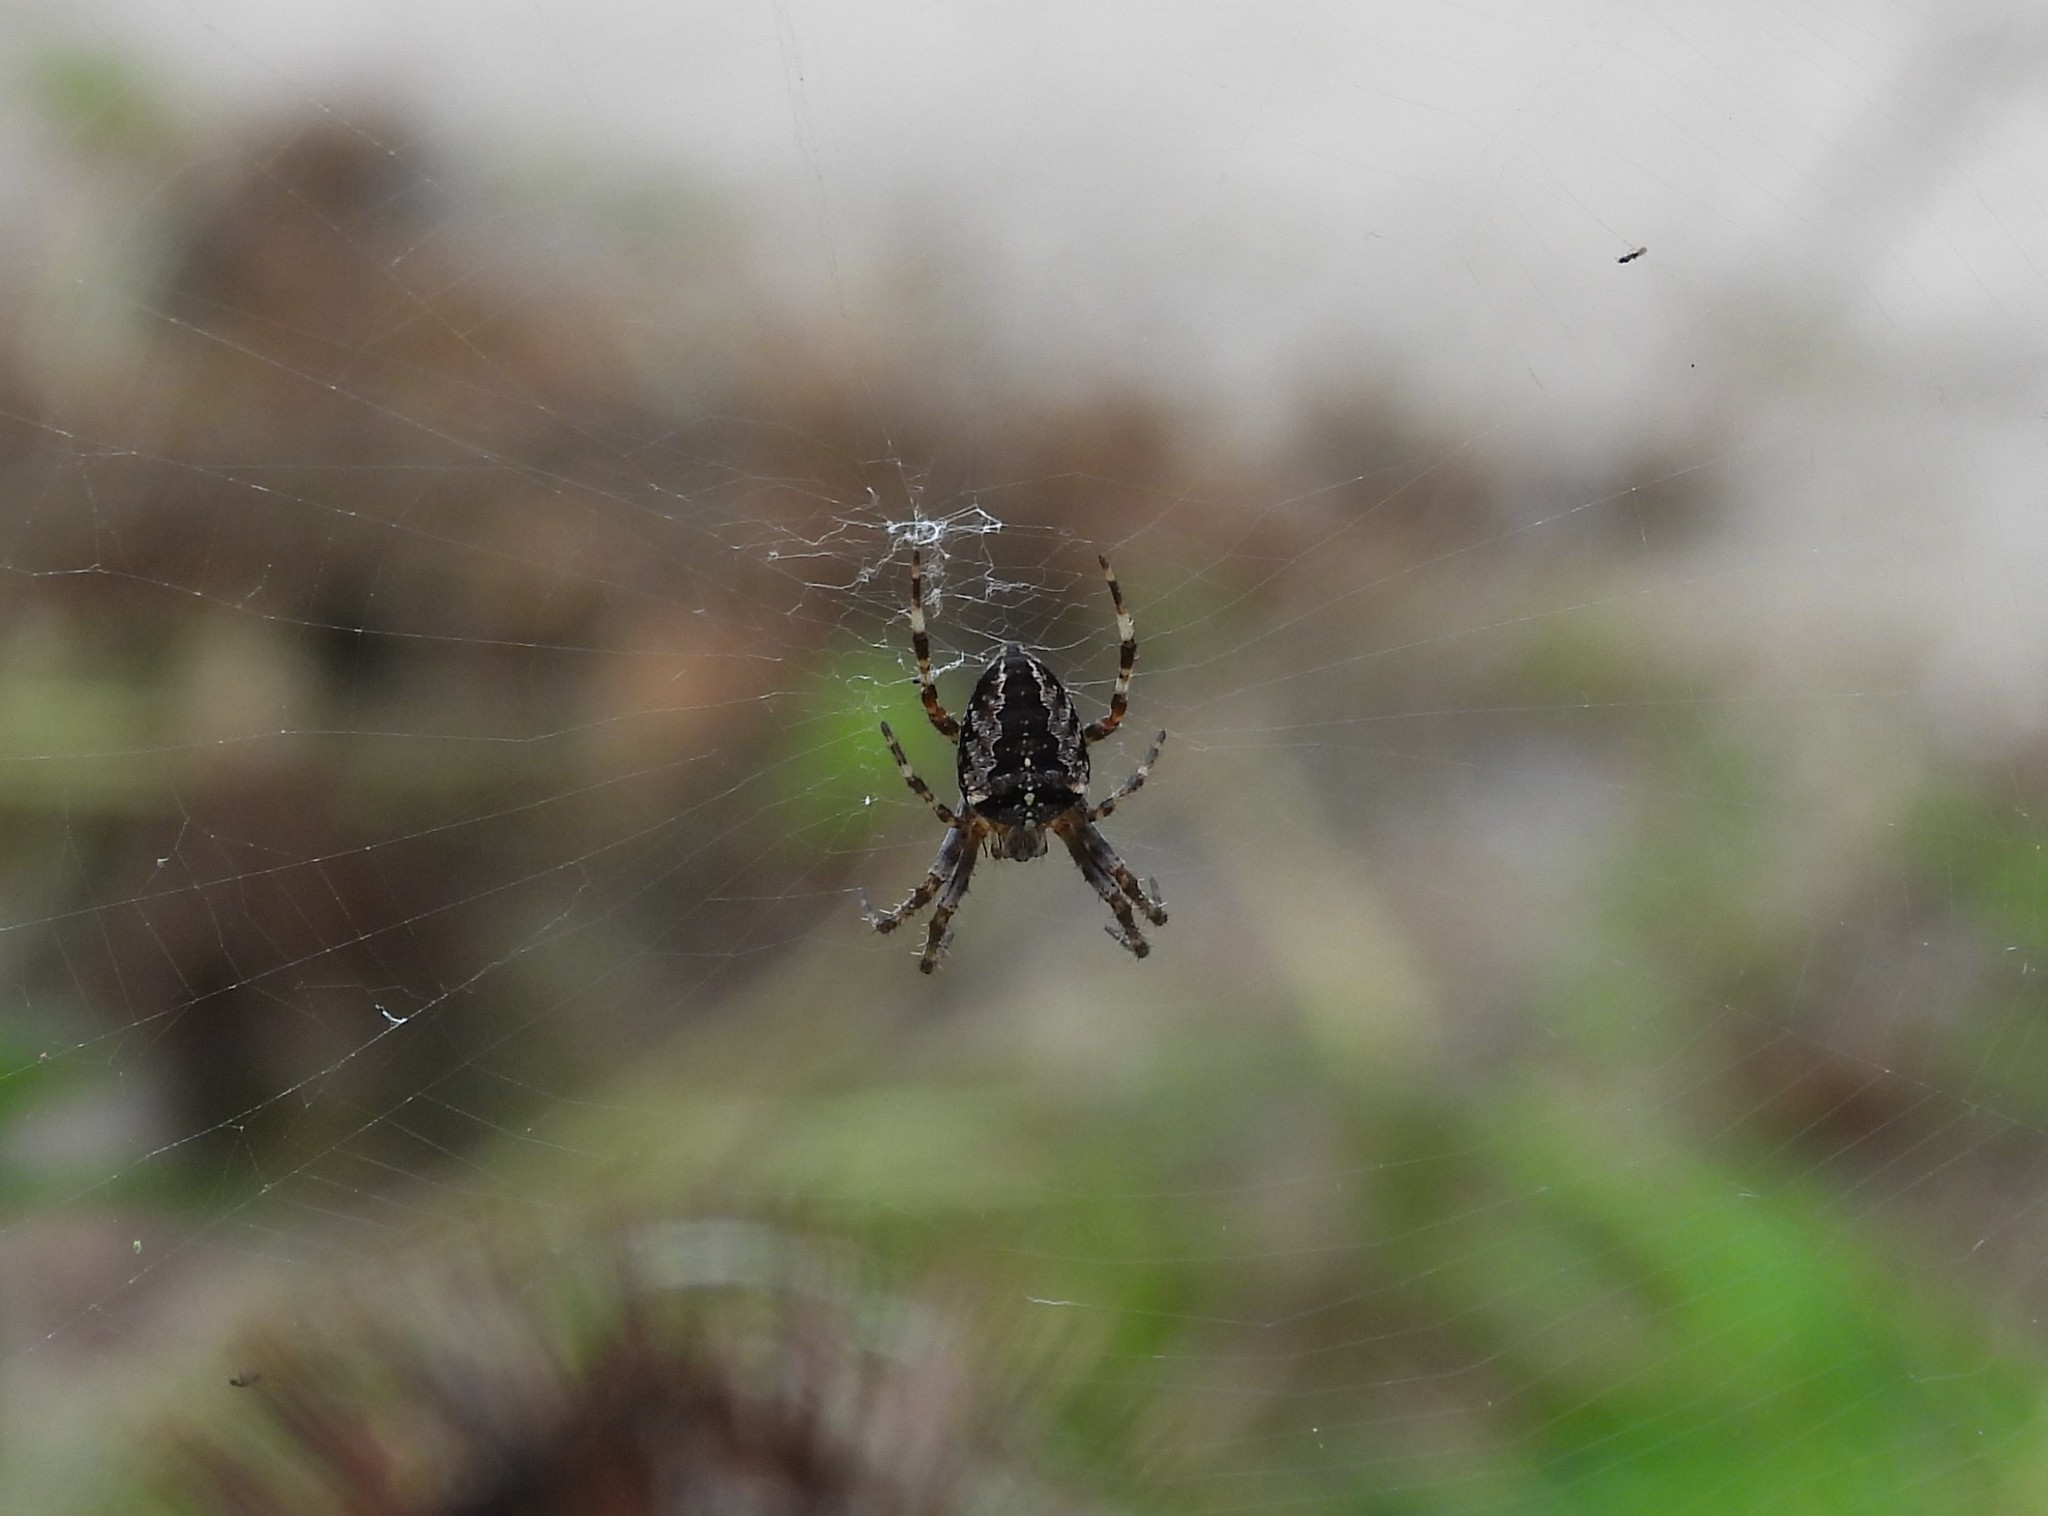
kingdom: Animalia
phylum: Arthropoda
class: Arachnida
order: Araneae
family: Araneidae
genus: Araneus
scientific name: Araneus diadematus
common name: Cross orbweaver
